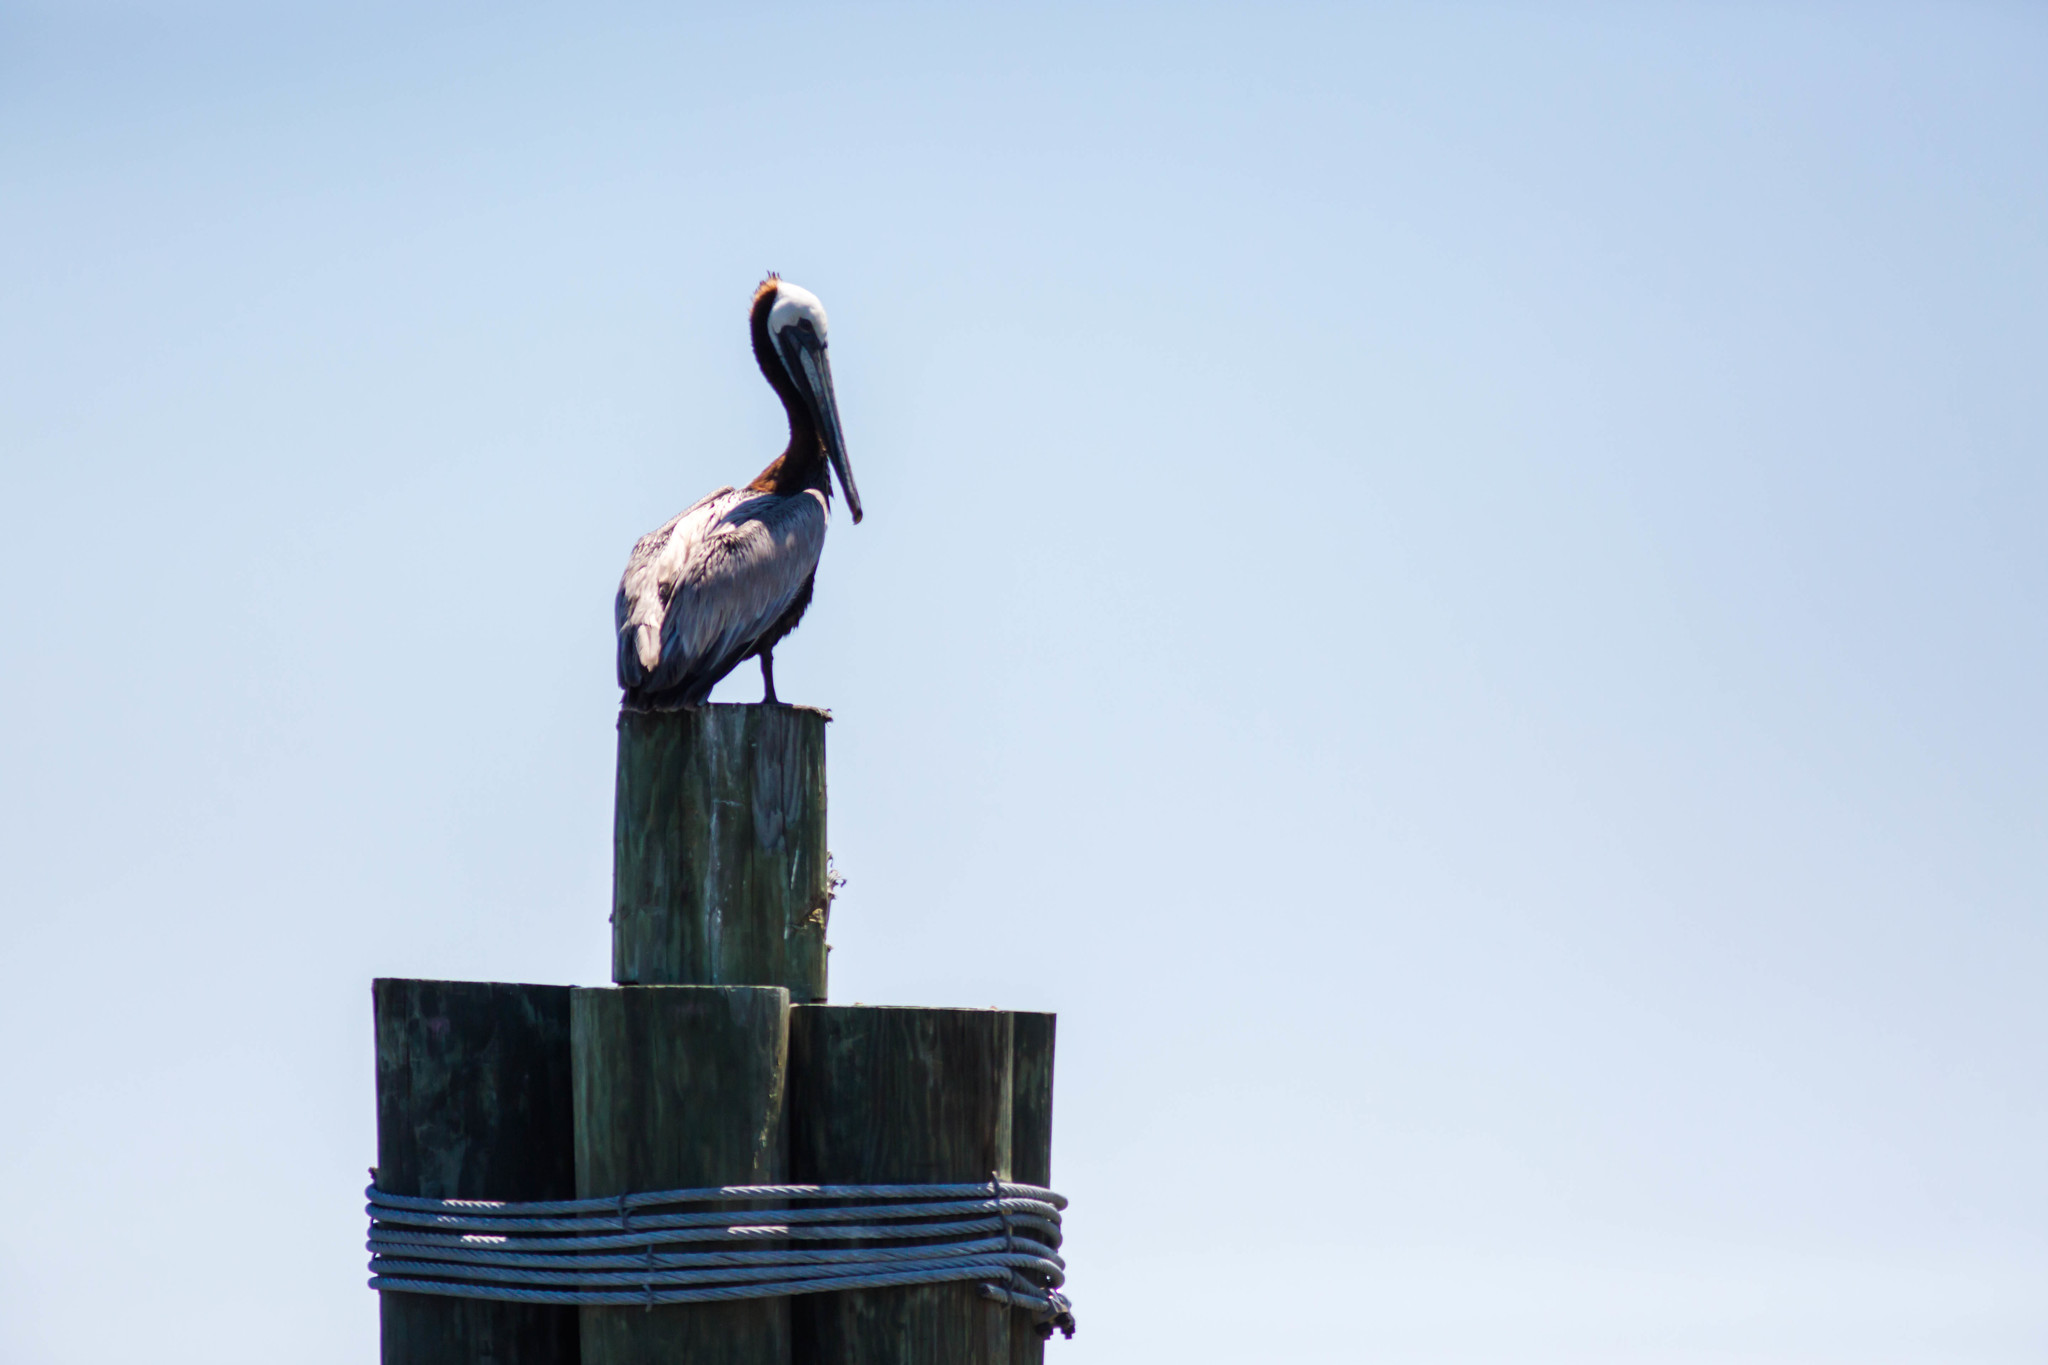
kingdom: Animalia
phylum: Chordata
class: Aves
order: Pelecaniformes
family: Pelecanidae
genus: Pelecanus
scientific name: Pelecanus occidentalis
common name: Brown pelican
